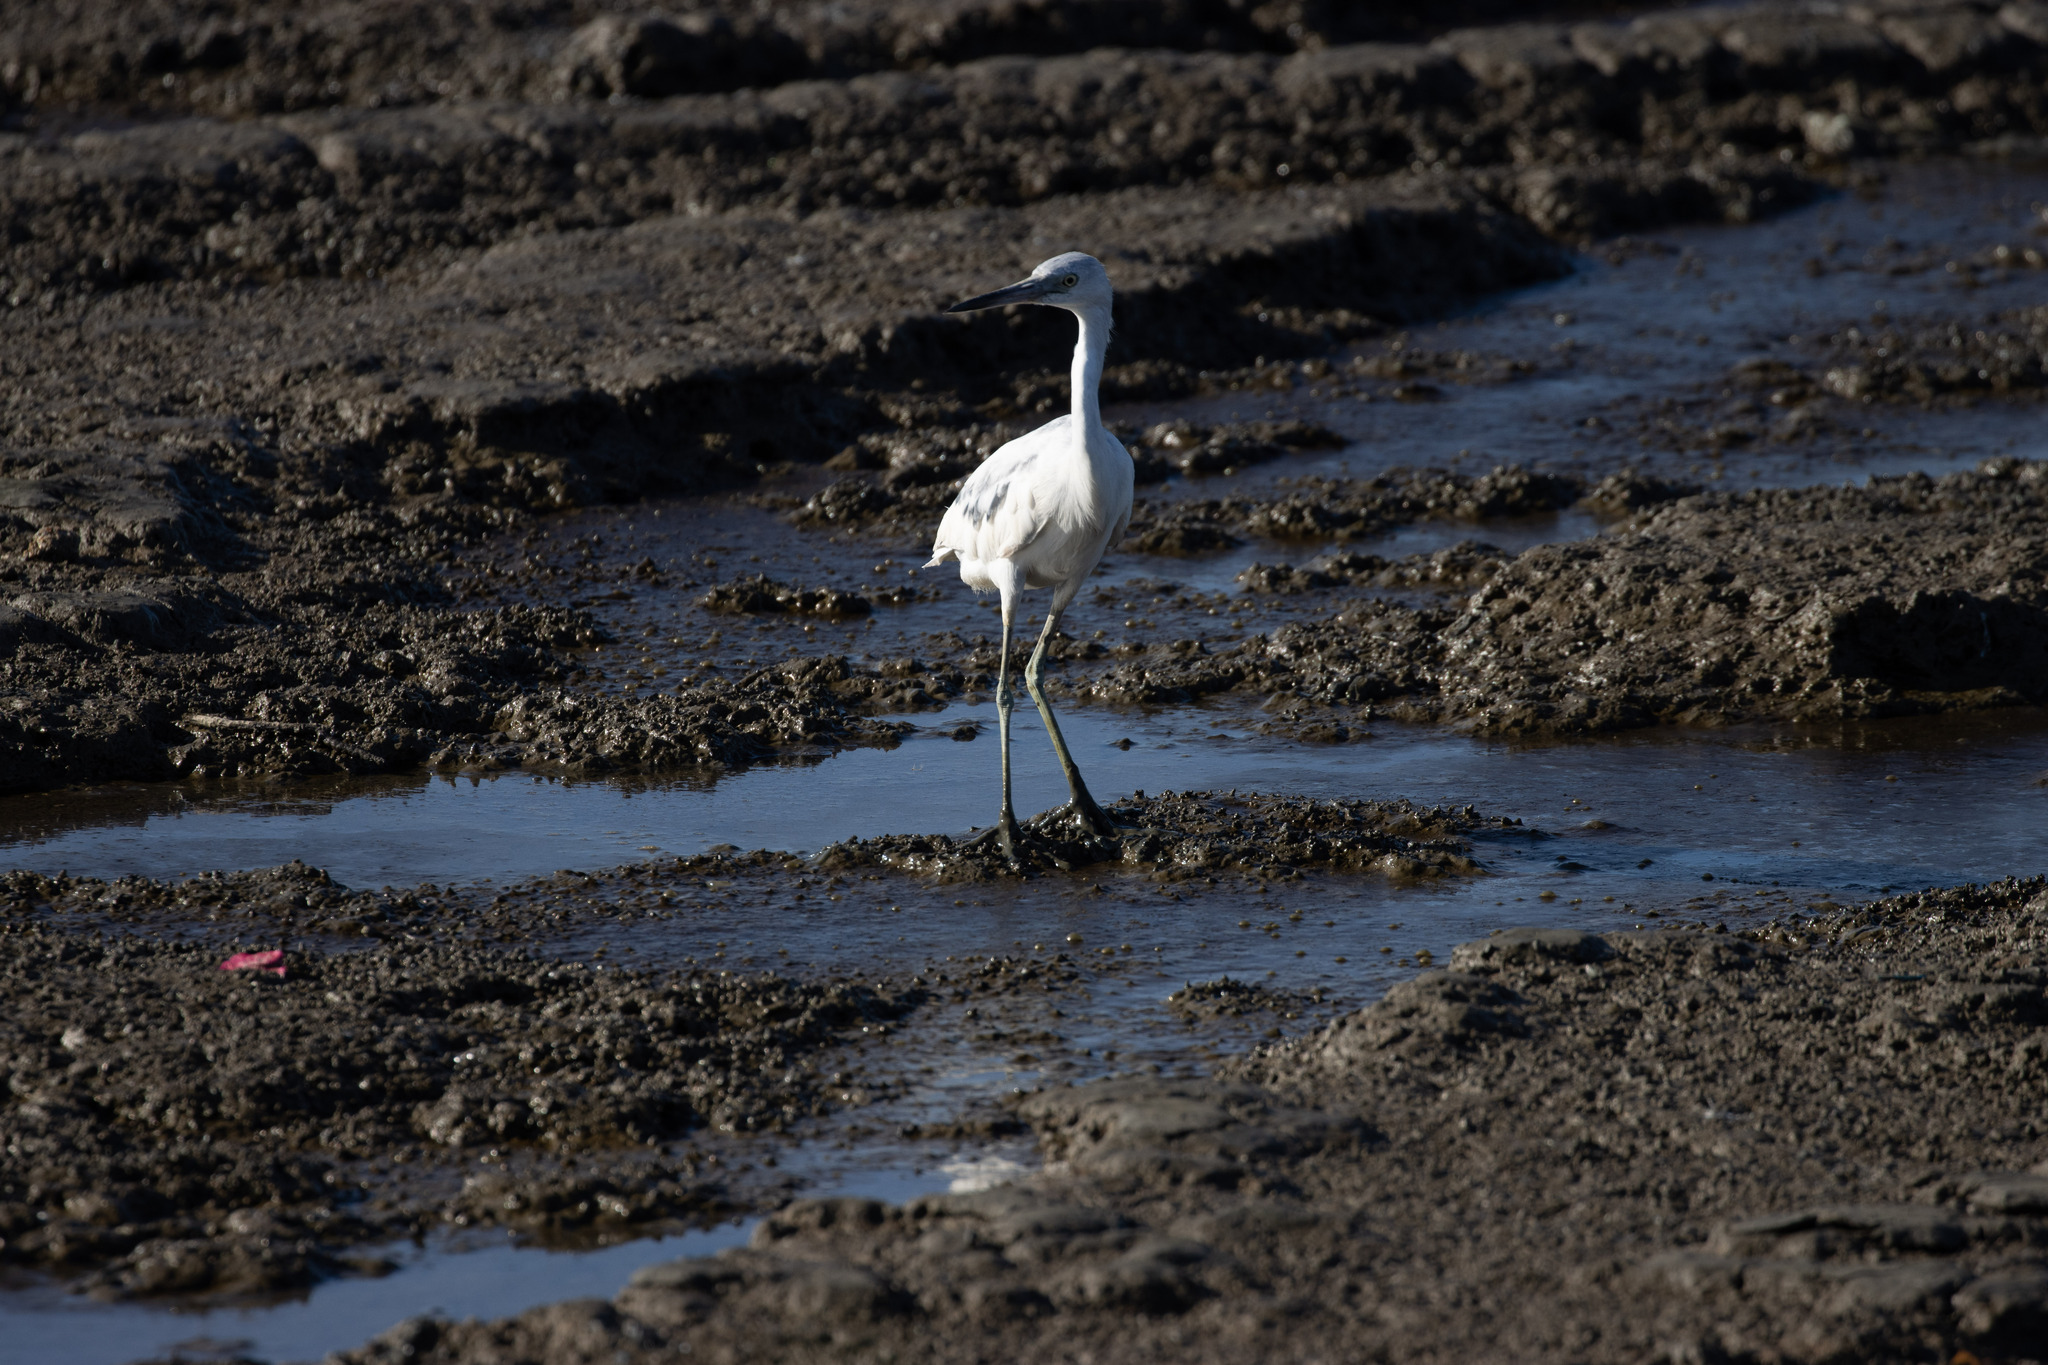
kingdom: Animalia
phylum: Chordata
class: Aves
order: Pelecaniformes
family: Ardeidae
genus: Egretta
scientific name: Egretta caerulea
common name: Little blue heron
